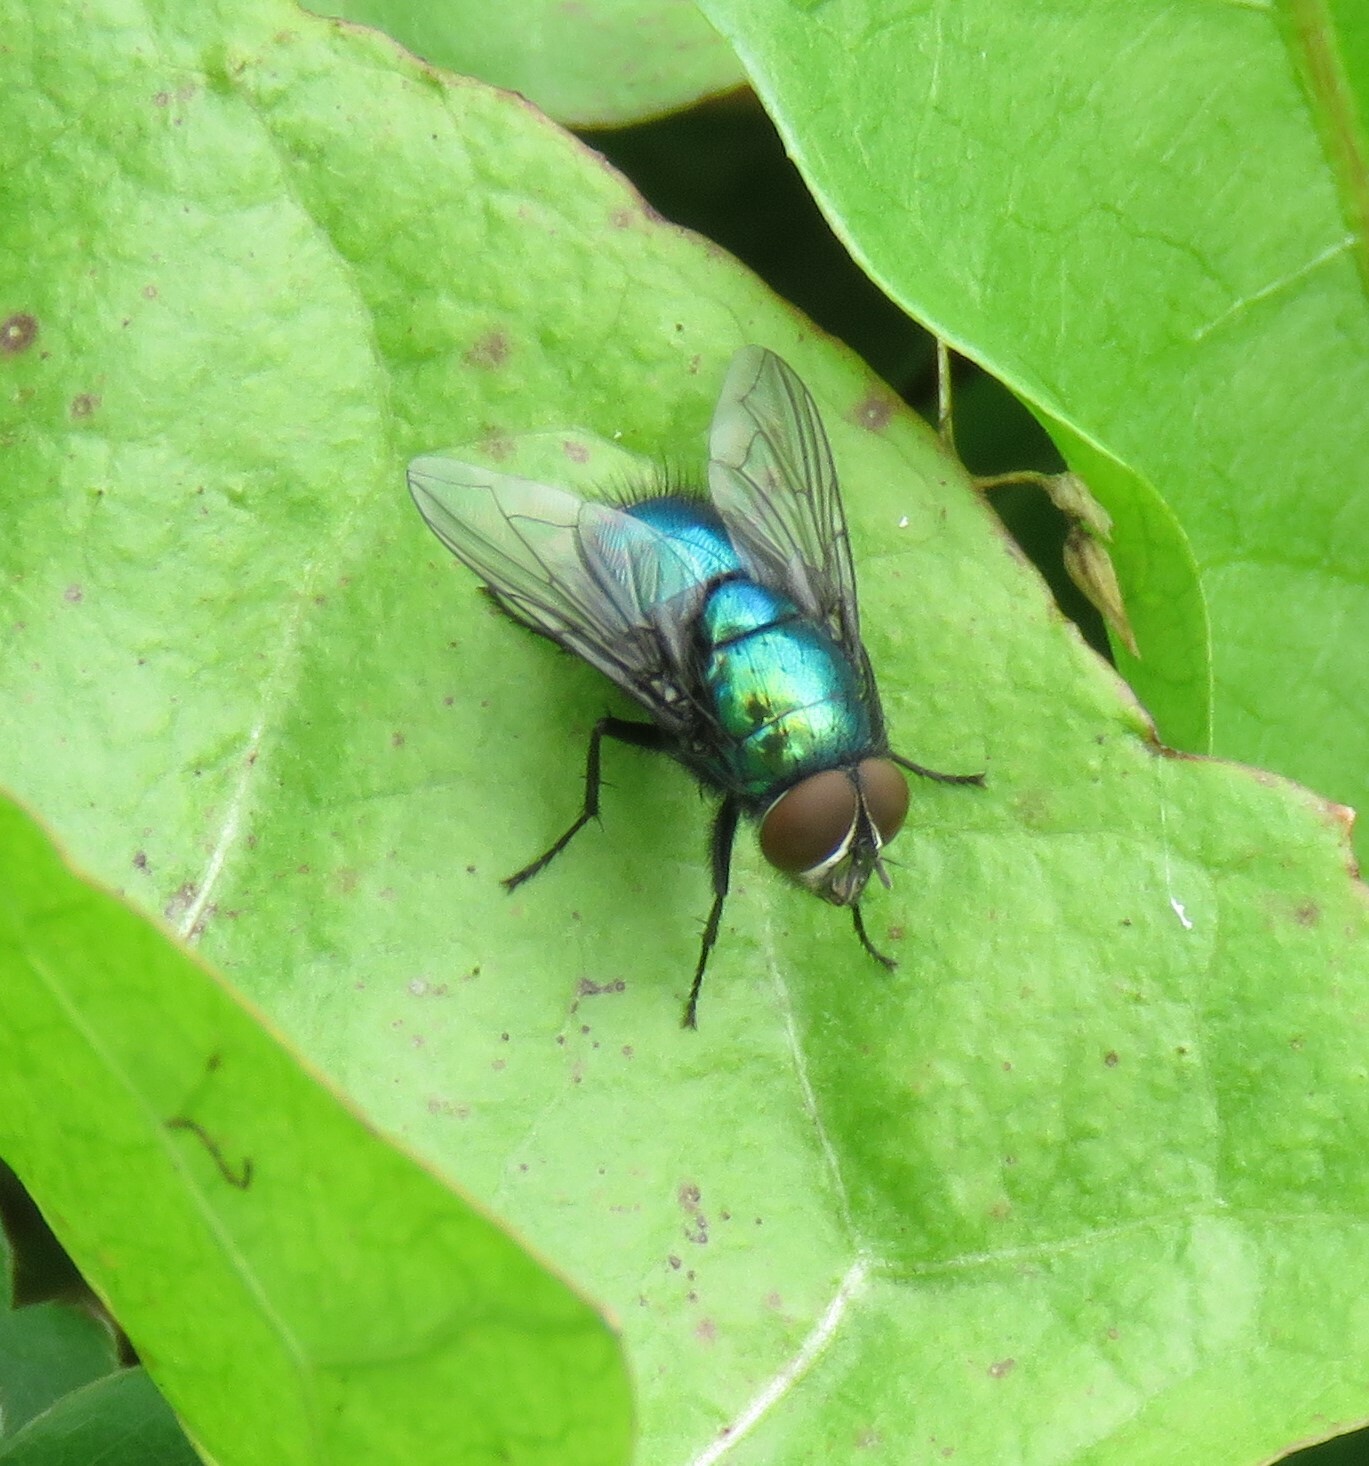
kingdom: Animalia
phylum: Arthropoda
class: Insecta
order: Diptera
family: Calliphoridae
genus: Lucilia
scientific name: Lucilia illustris
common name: Illustrious greenbottle
